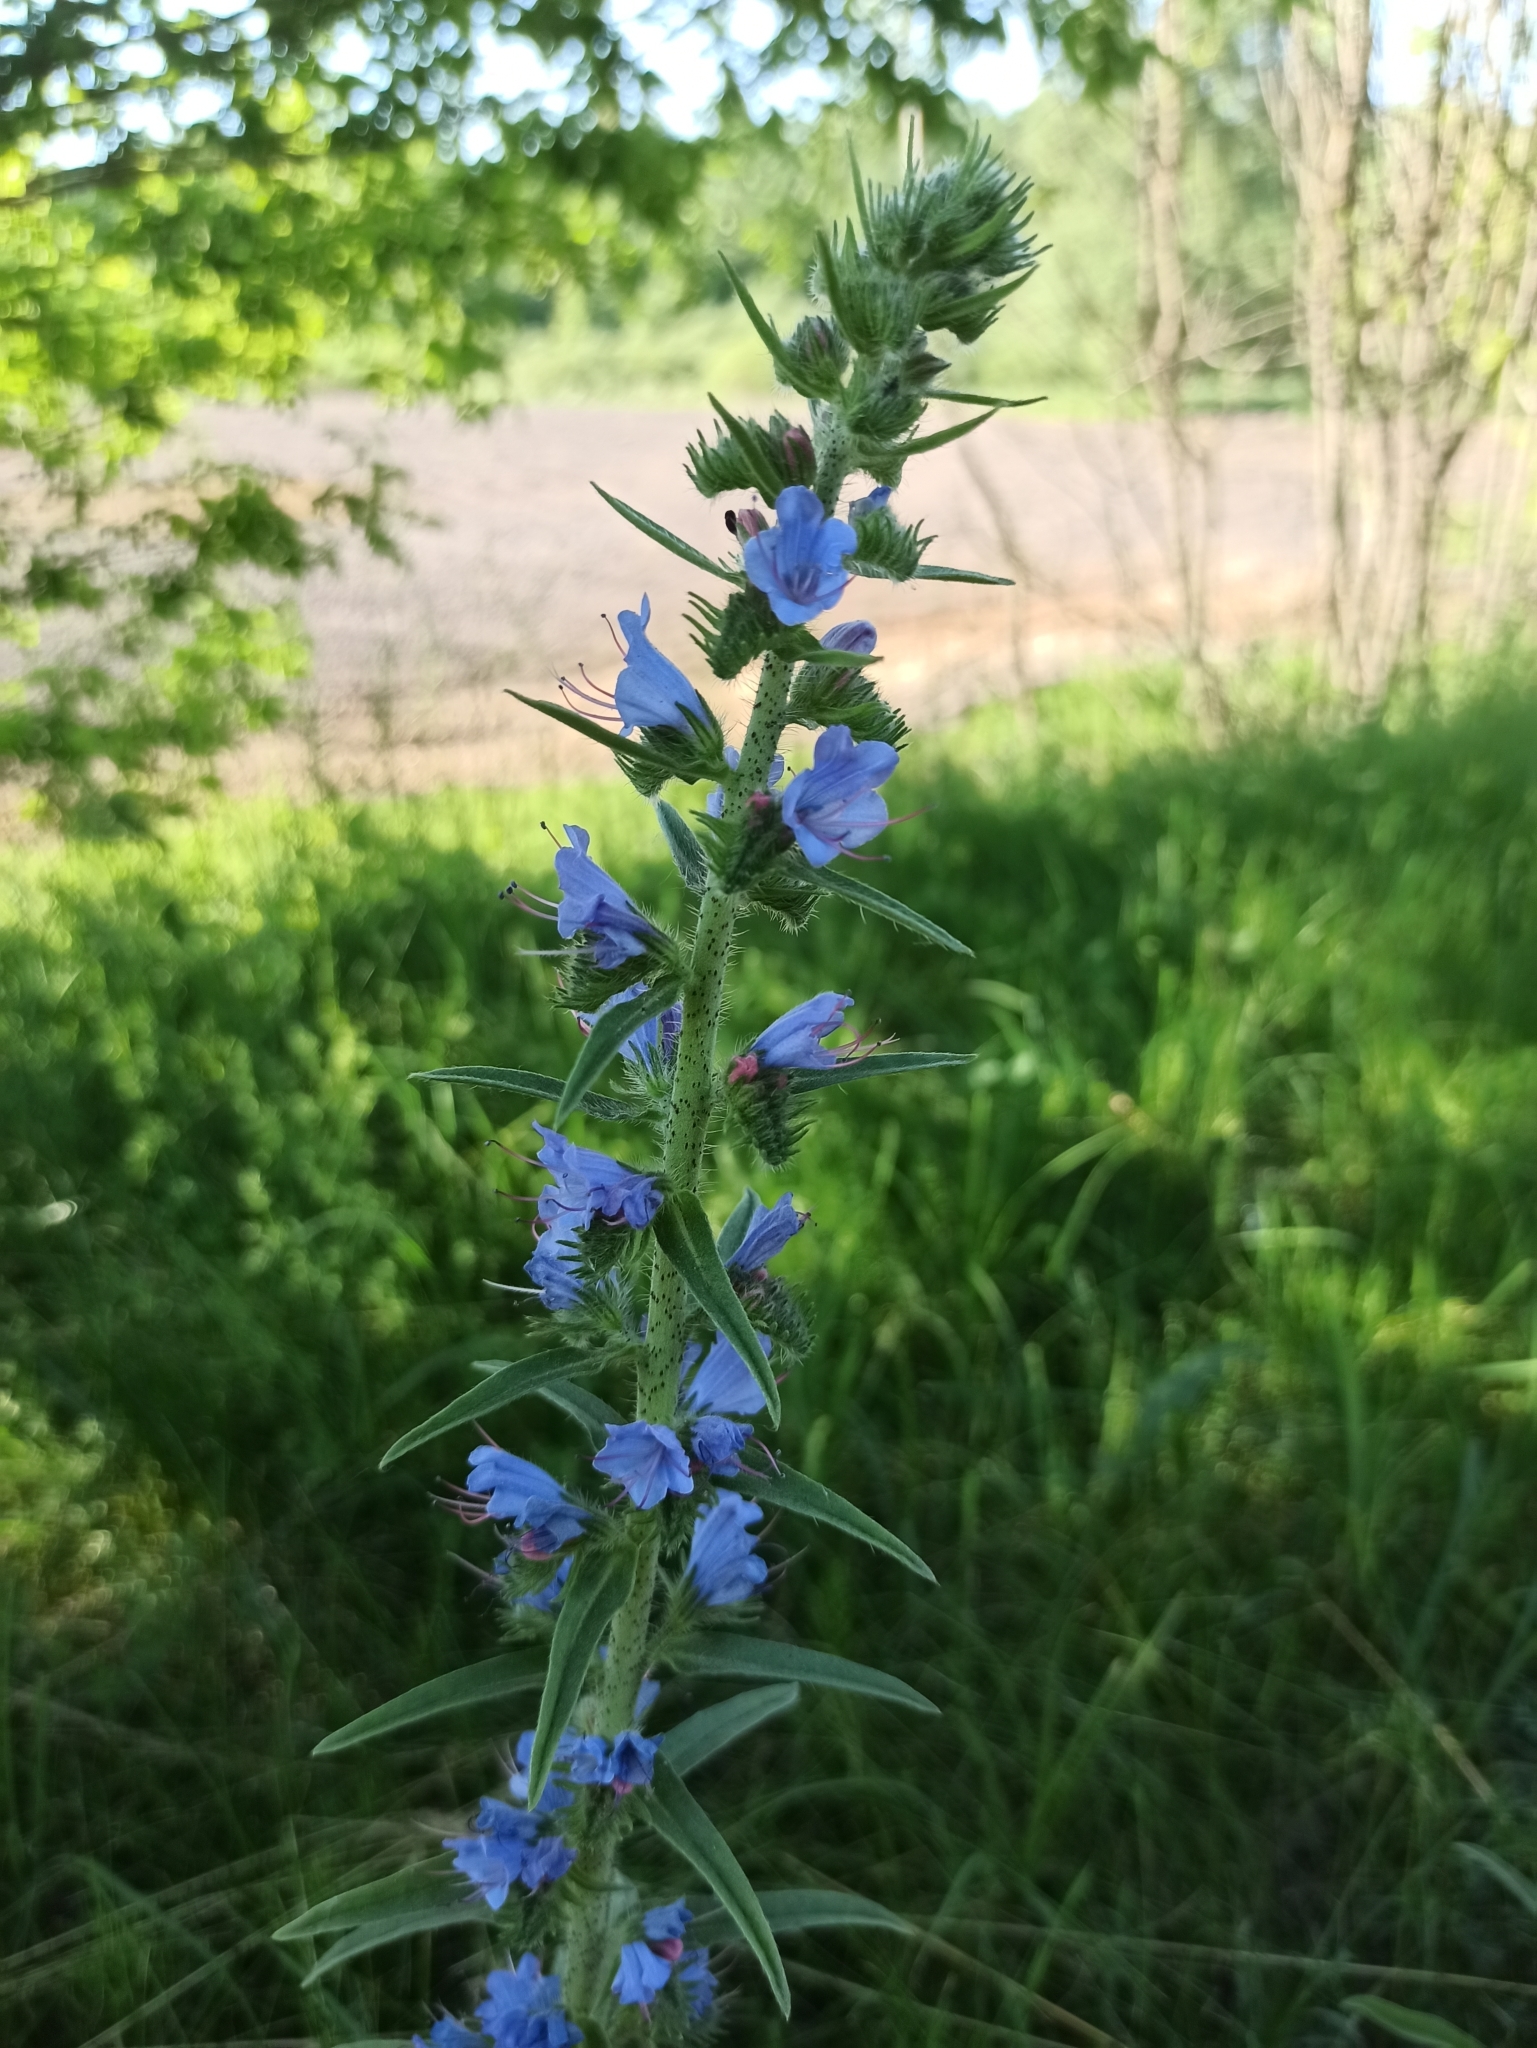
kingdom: Plantae
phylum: Tracheophyta
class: Magnoliopsida
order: Boraginales
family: Boraginaceae
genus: Echium
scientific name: Echium vulgare
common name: Common viper's bugloss
